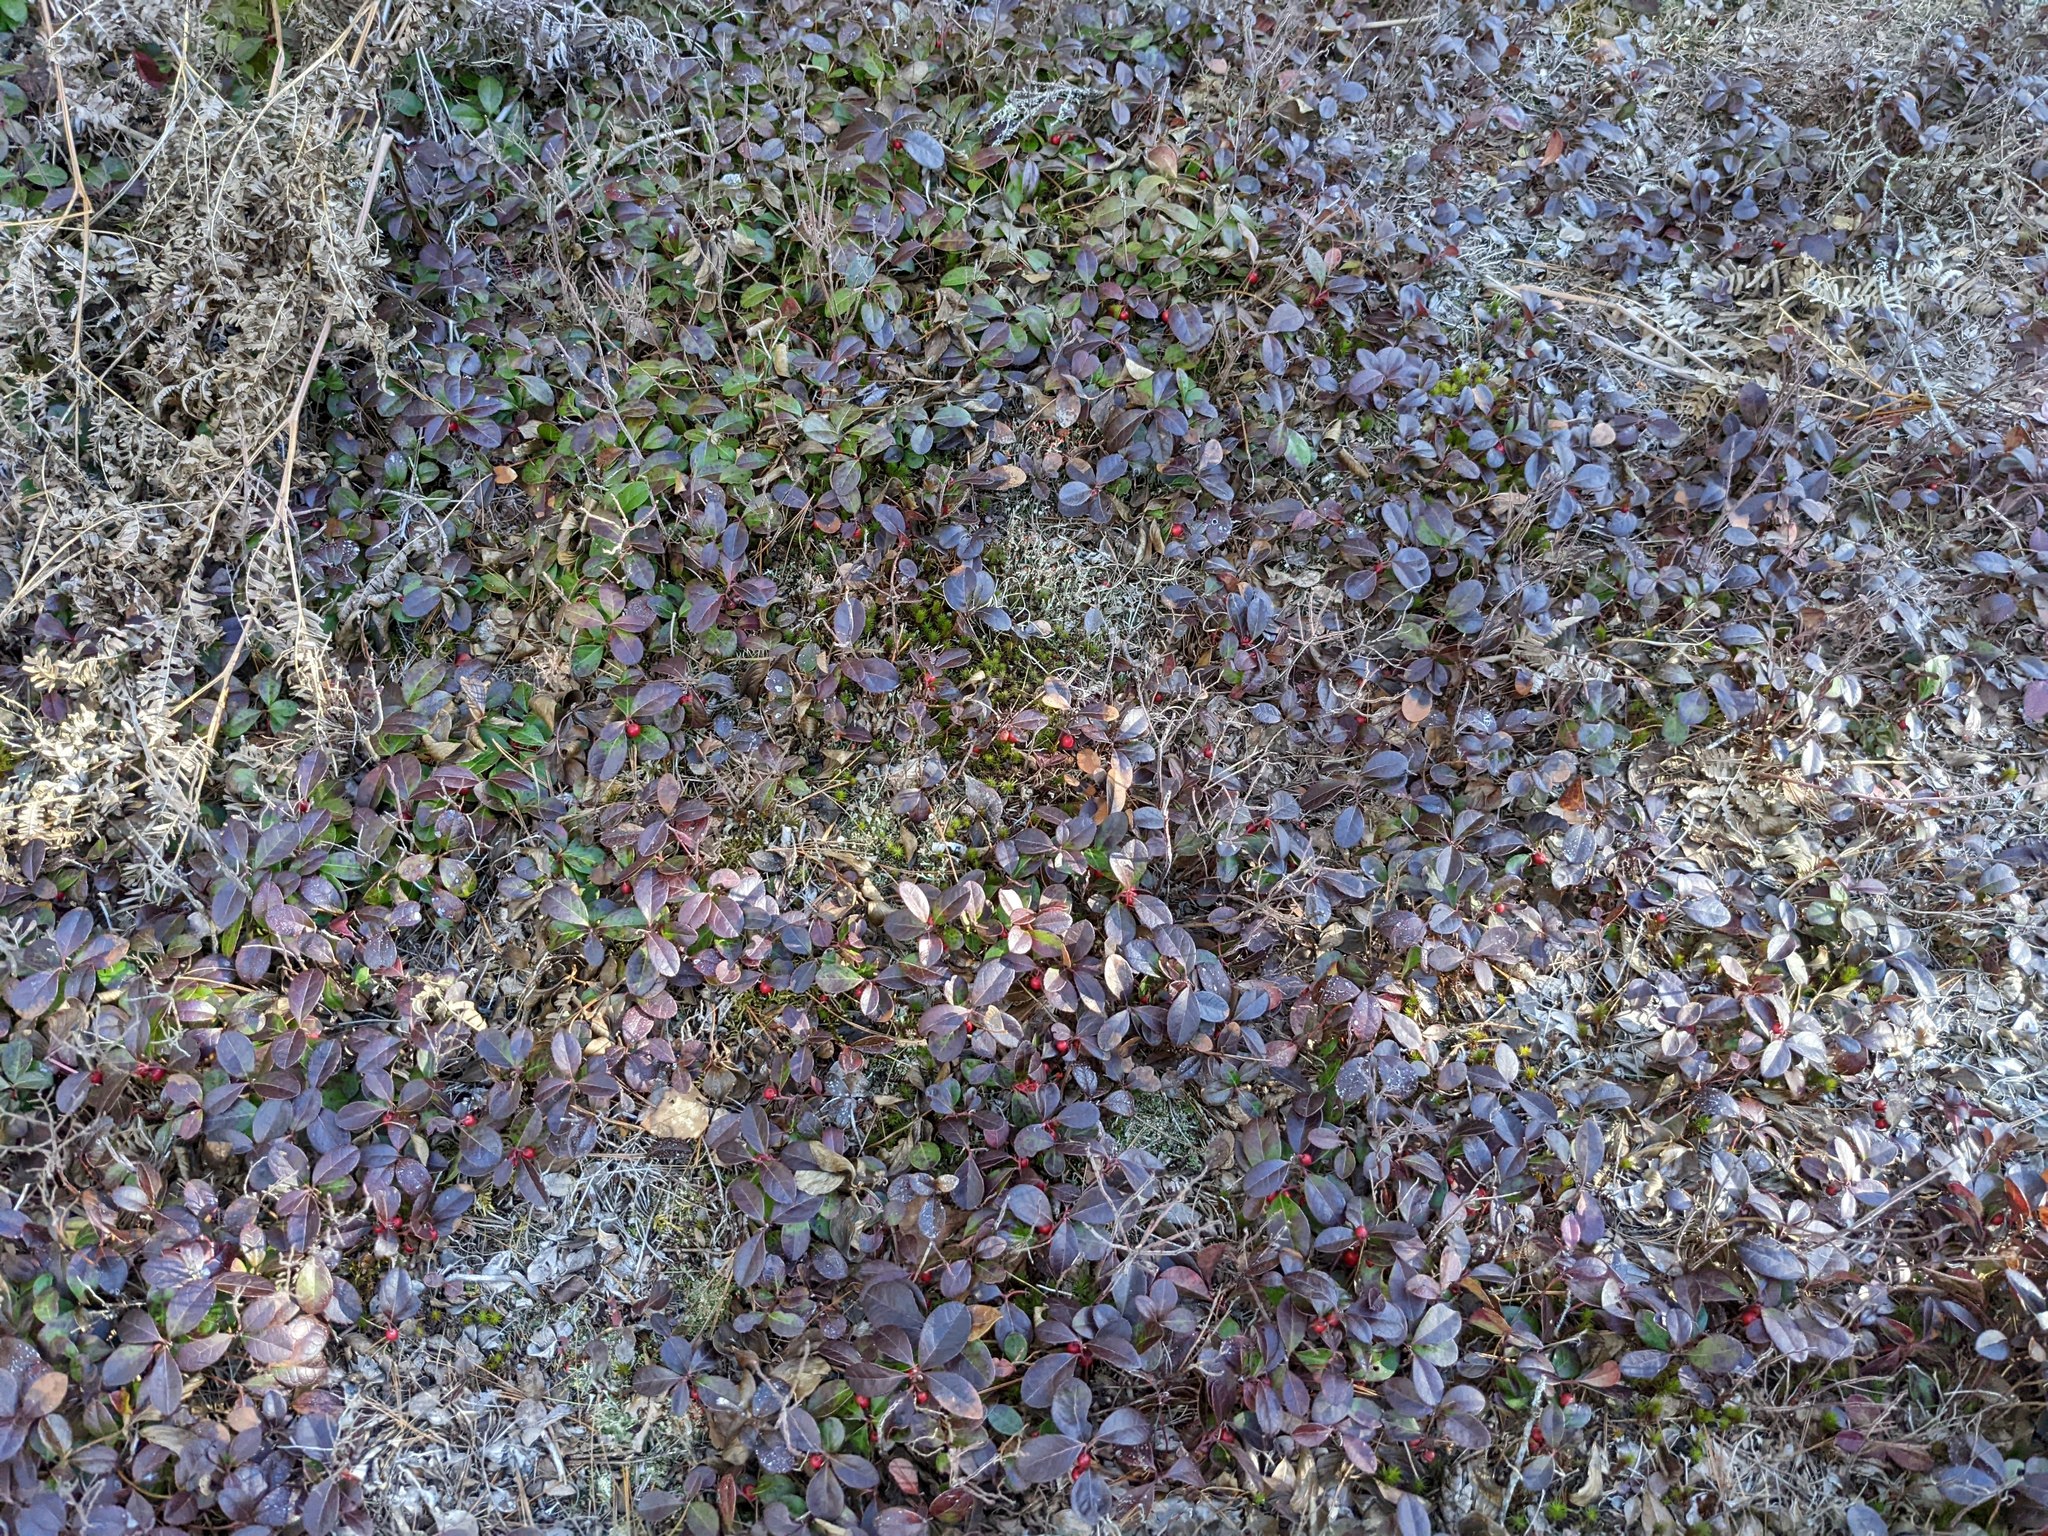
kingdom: Plantae
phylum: Tracheophyta
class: Magnoliopsida
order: Ericales
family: Ericaceae
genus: Gaultheria
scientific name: Gaultheria procumbens
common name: Checkerberry
